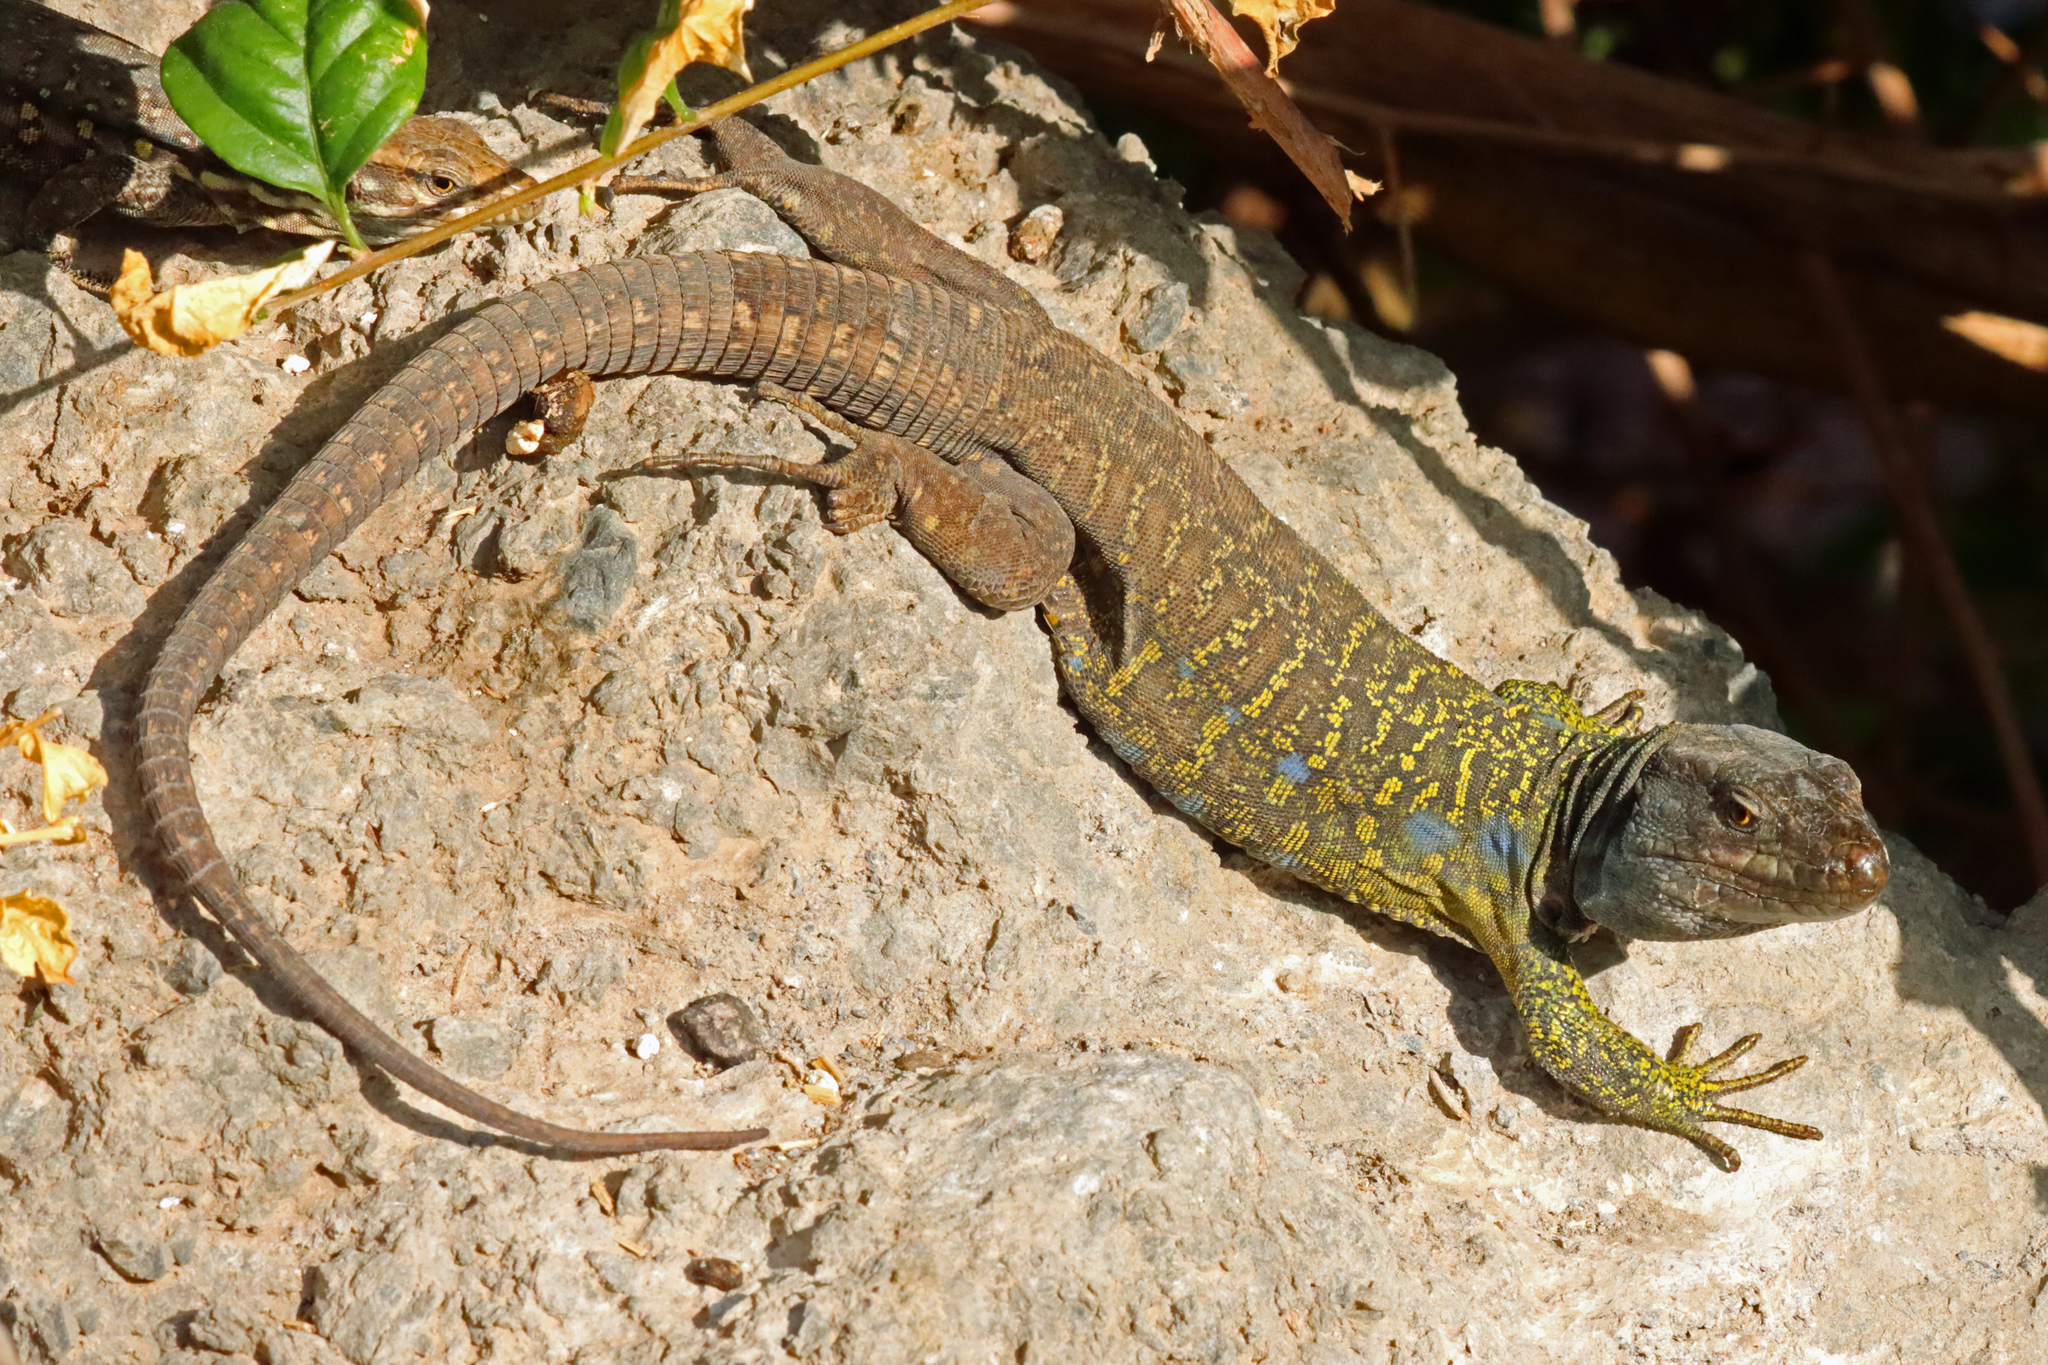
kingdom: Animalia
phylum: Chordata
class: Squamata
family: Lacertidae
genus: Gallotia
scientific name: Gallotia galloti
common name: Gallot's lizard
